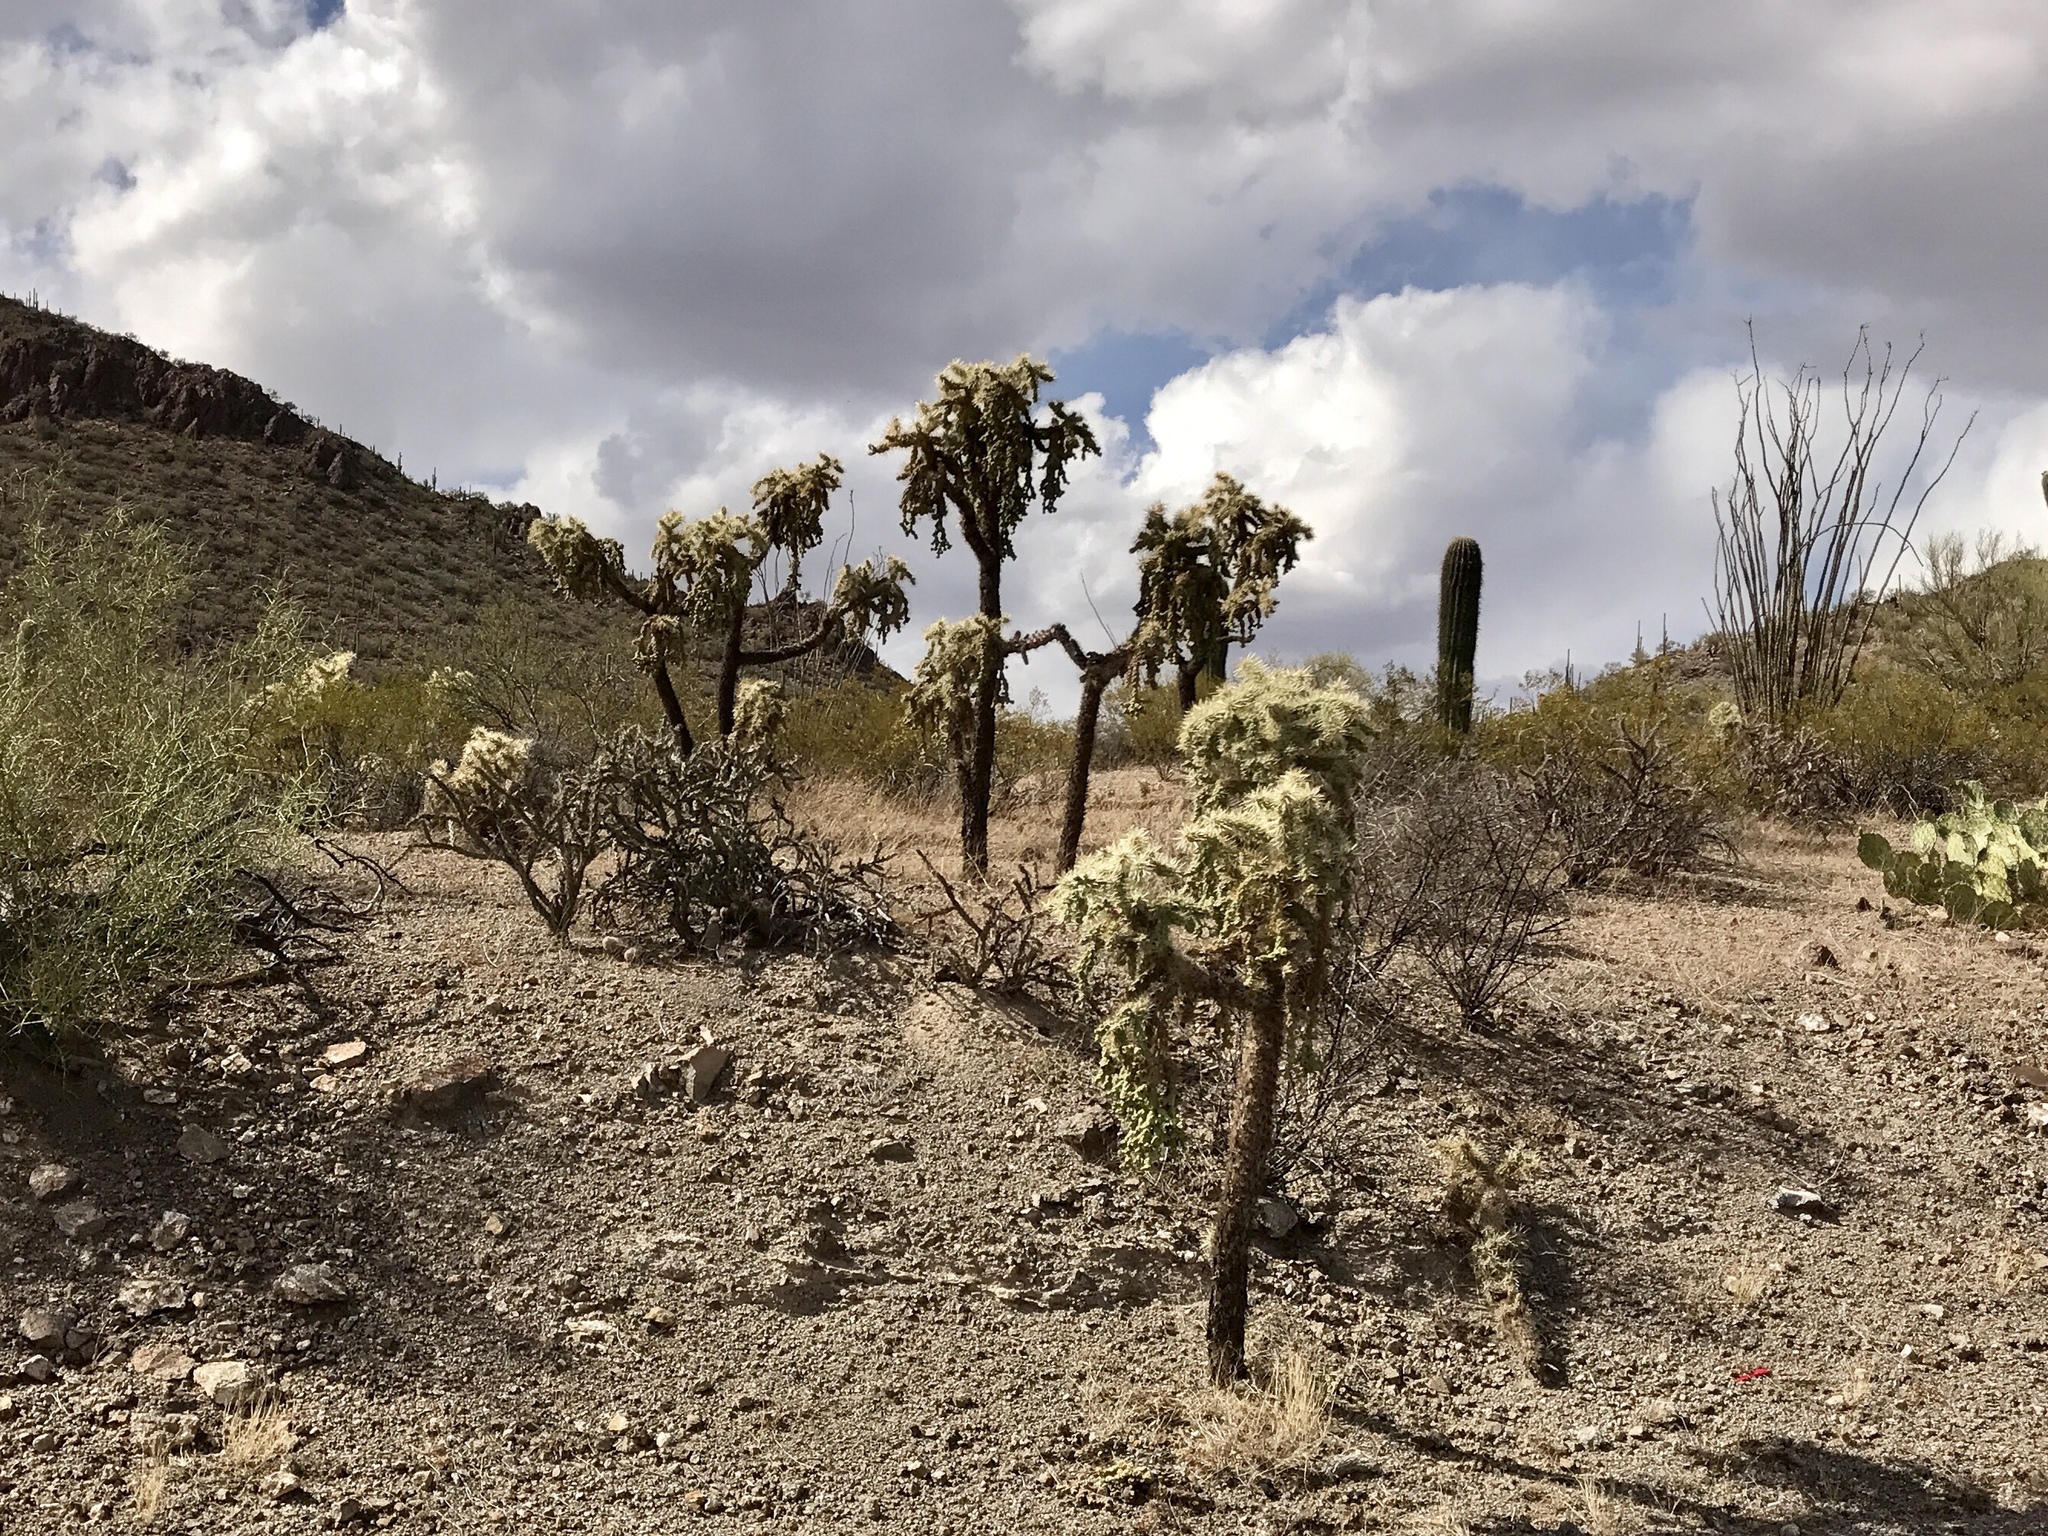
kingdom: Plantae
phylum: Tracheophyta
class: Magnoliopsida
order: Caryophyllales
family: Cactaceae
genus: Cylindropuntia
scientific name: Cylindropuntia fulgida
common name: Jumping cholla
